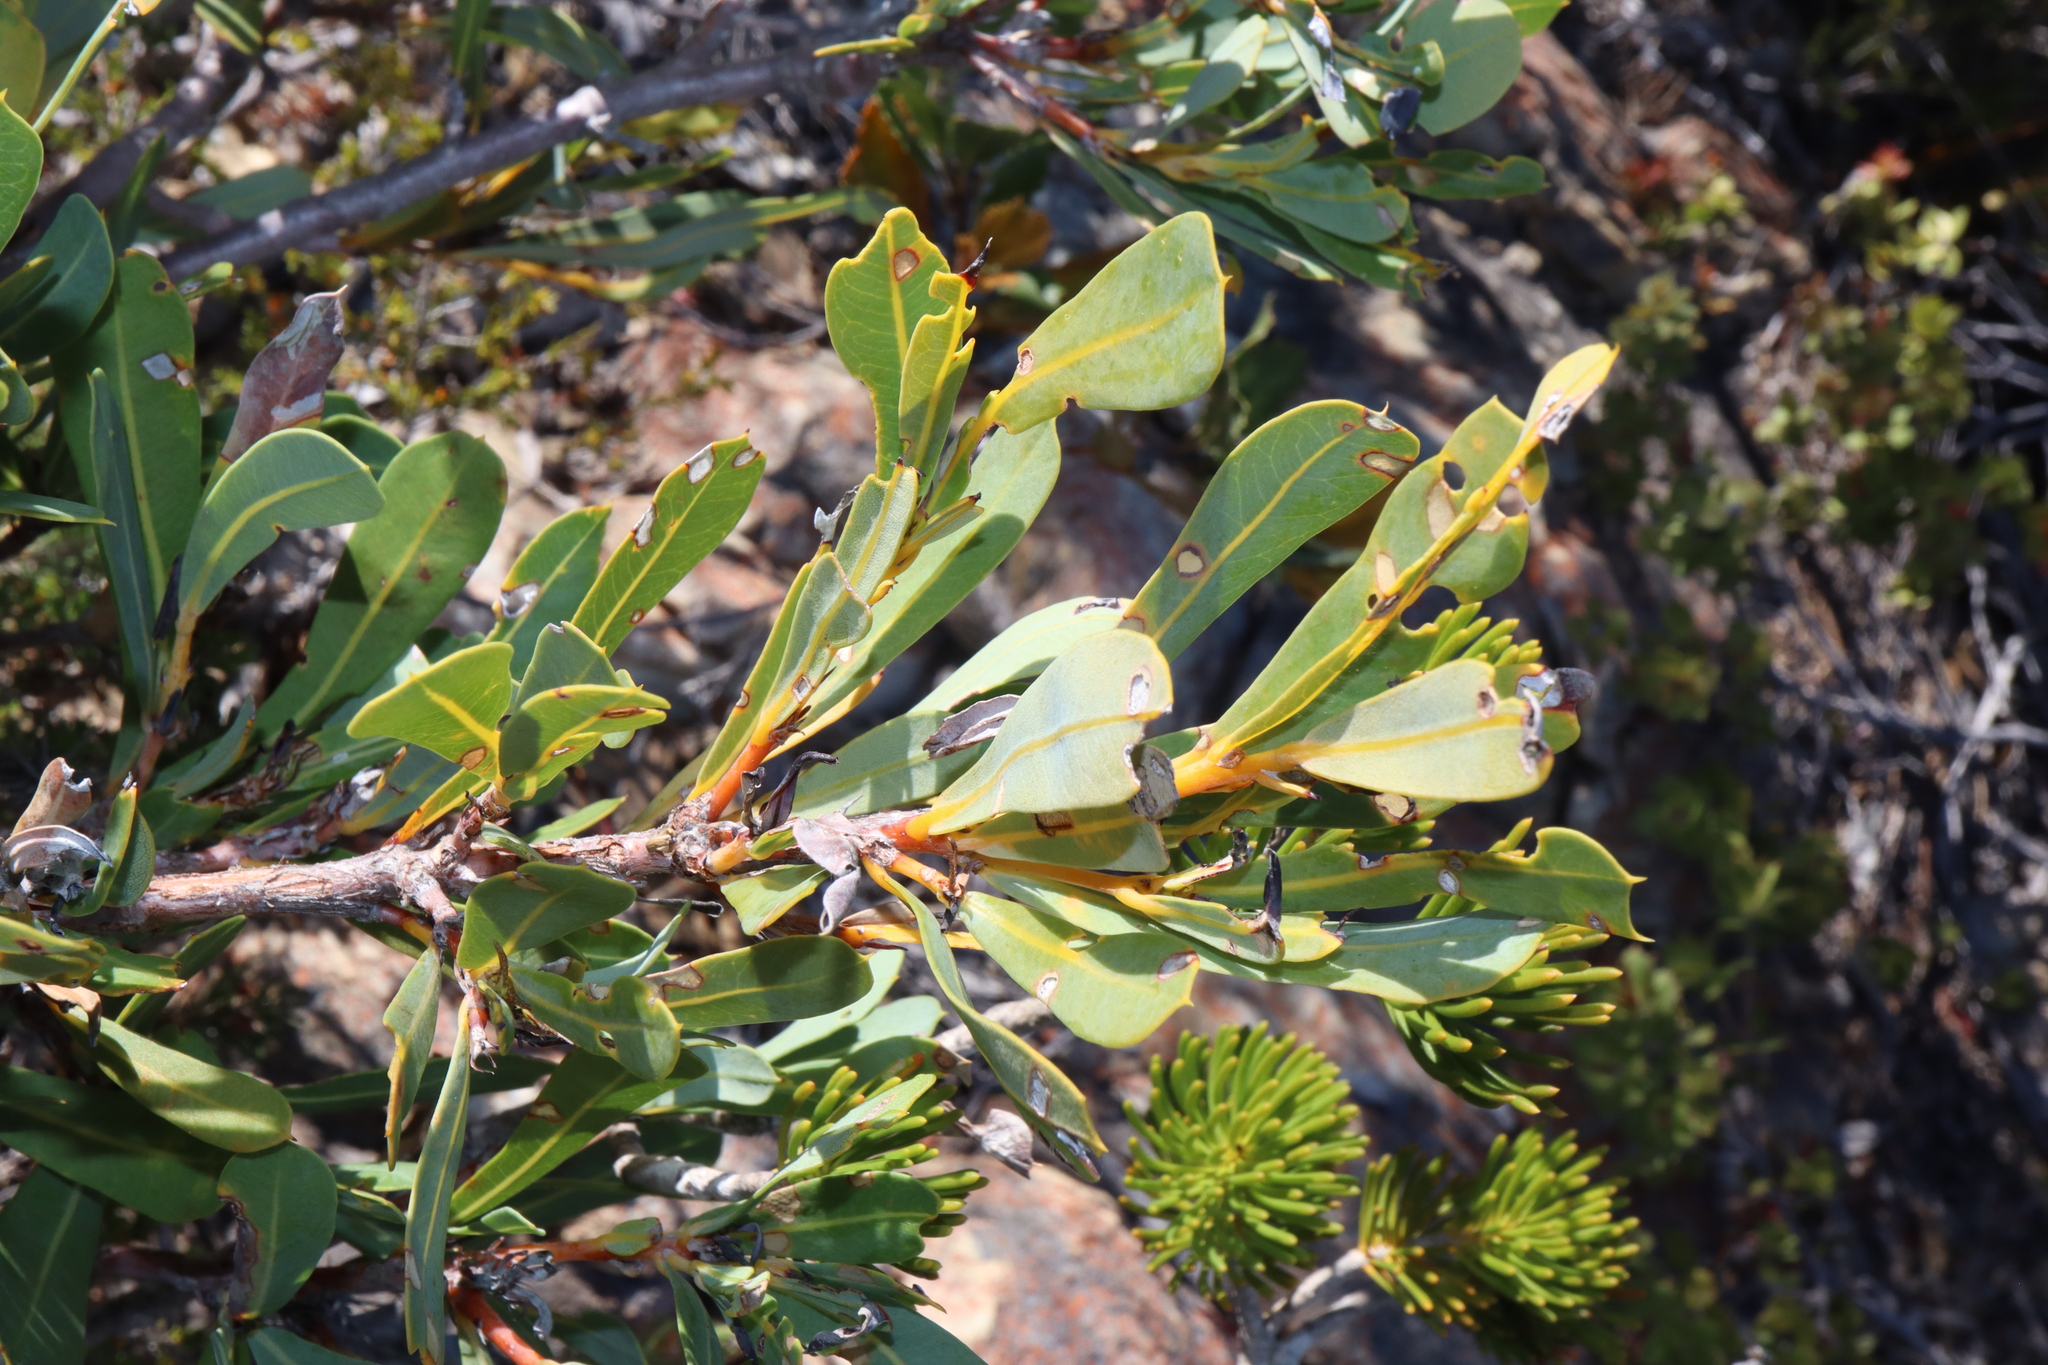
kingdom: Plantae
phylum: Tracheophyta
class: Magnoliopsida
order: Proteales
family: Proteaceae
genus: Banksia
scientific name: Banksia oreophila
